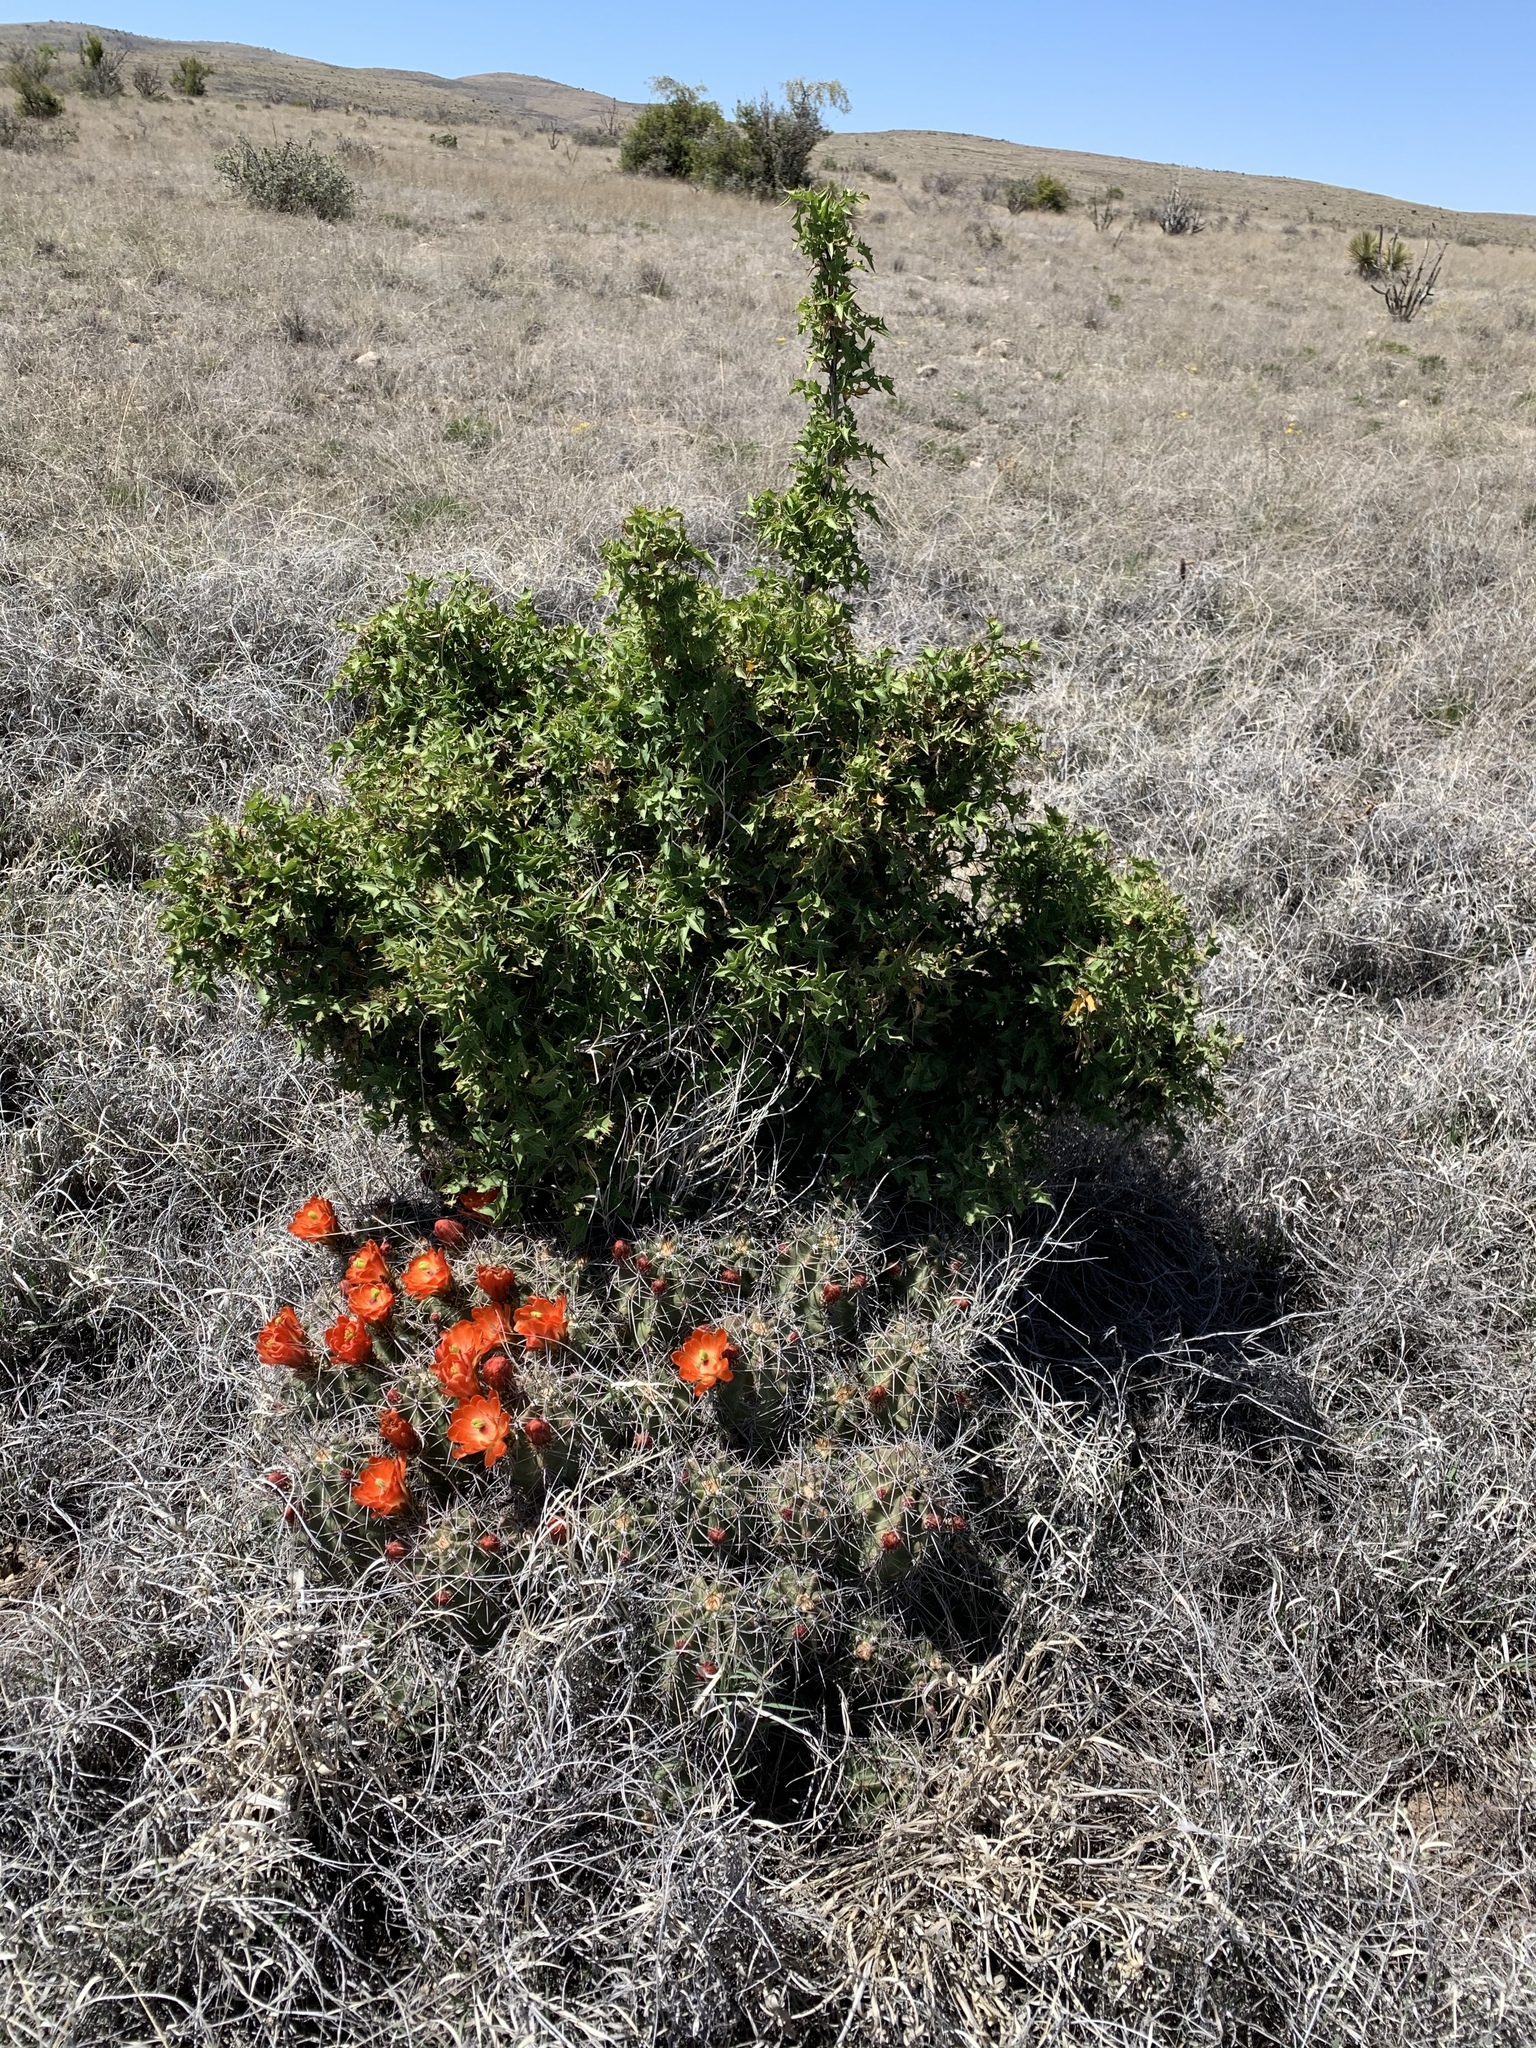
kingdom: Plantae
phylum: Tracheophyta
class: Magnoliopsida
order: Caryophyllales
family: Cactaceae
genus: Echinocereus
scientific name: Echinocereus coccineus
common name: Scarlet hedgehog cactus
